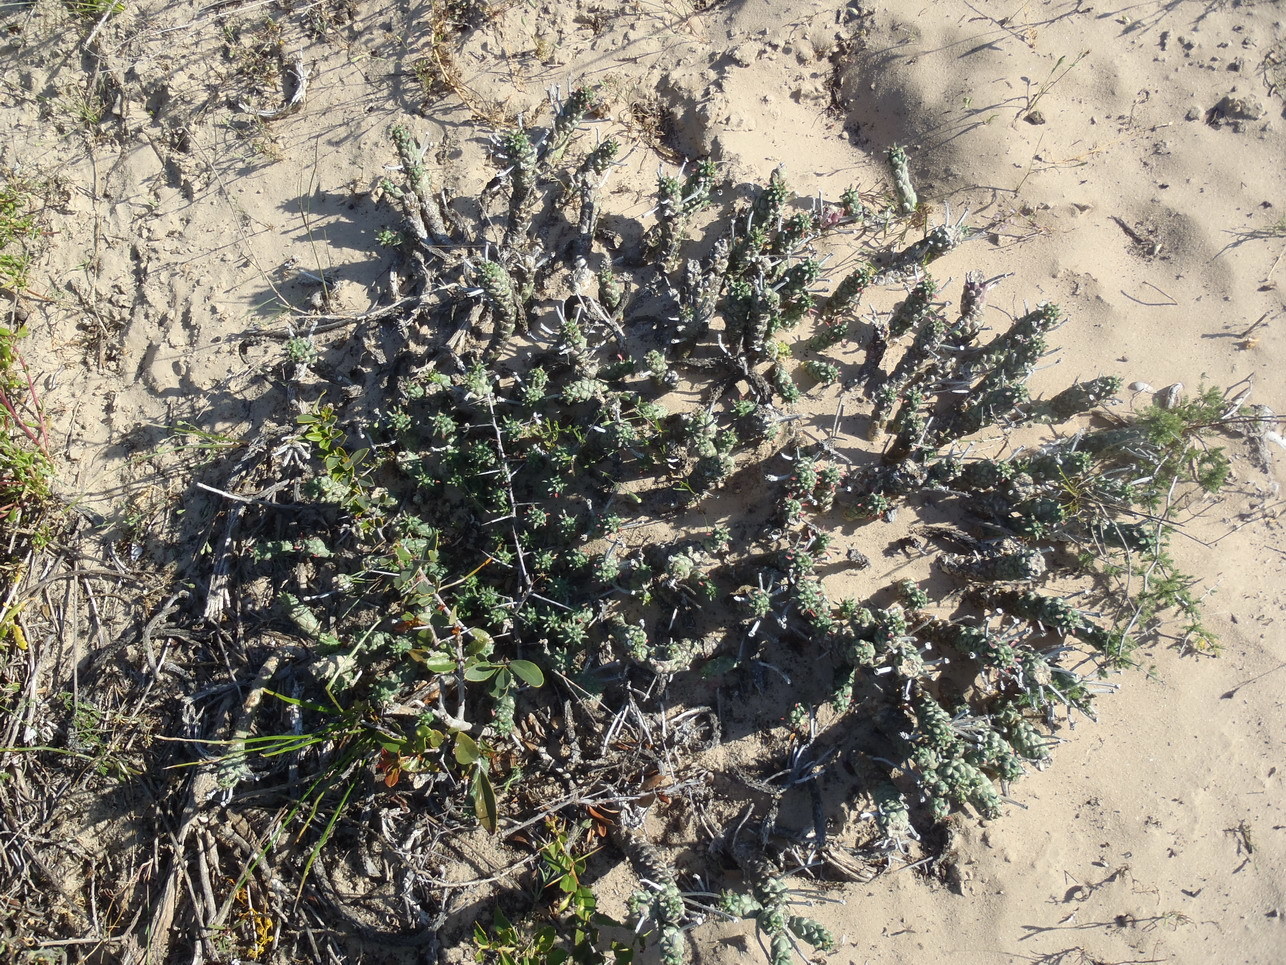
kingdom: Plantae
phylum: Tracheophyta
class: Magnoliopsida
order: Malpighiales
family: Euphorbiaceae
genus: Euphorbia
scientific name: Euphorbia caput-medusae
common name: Medusa's-head
